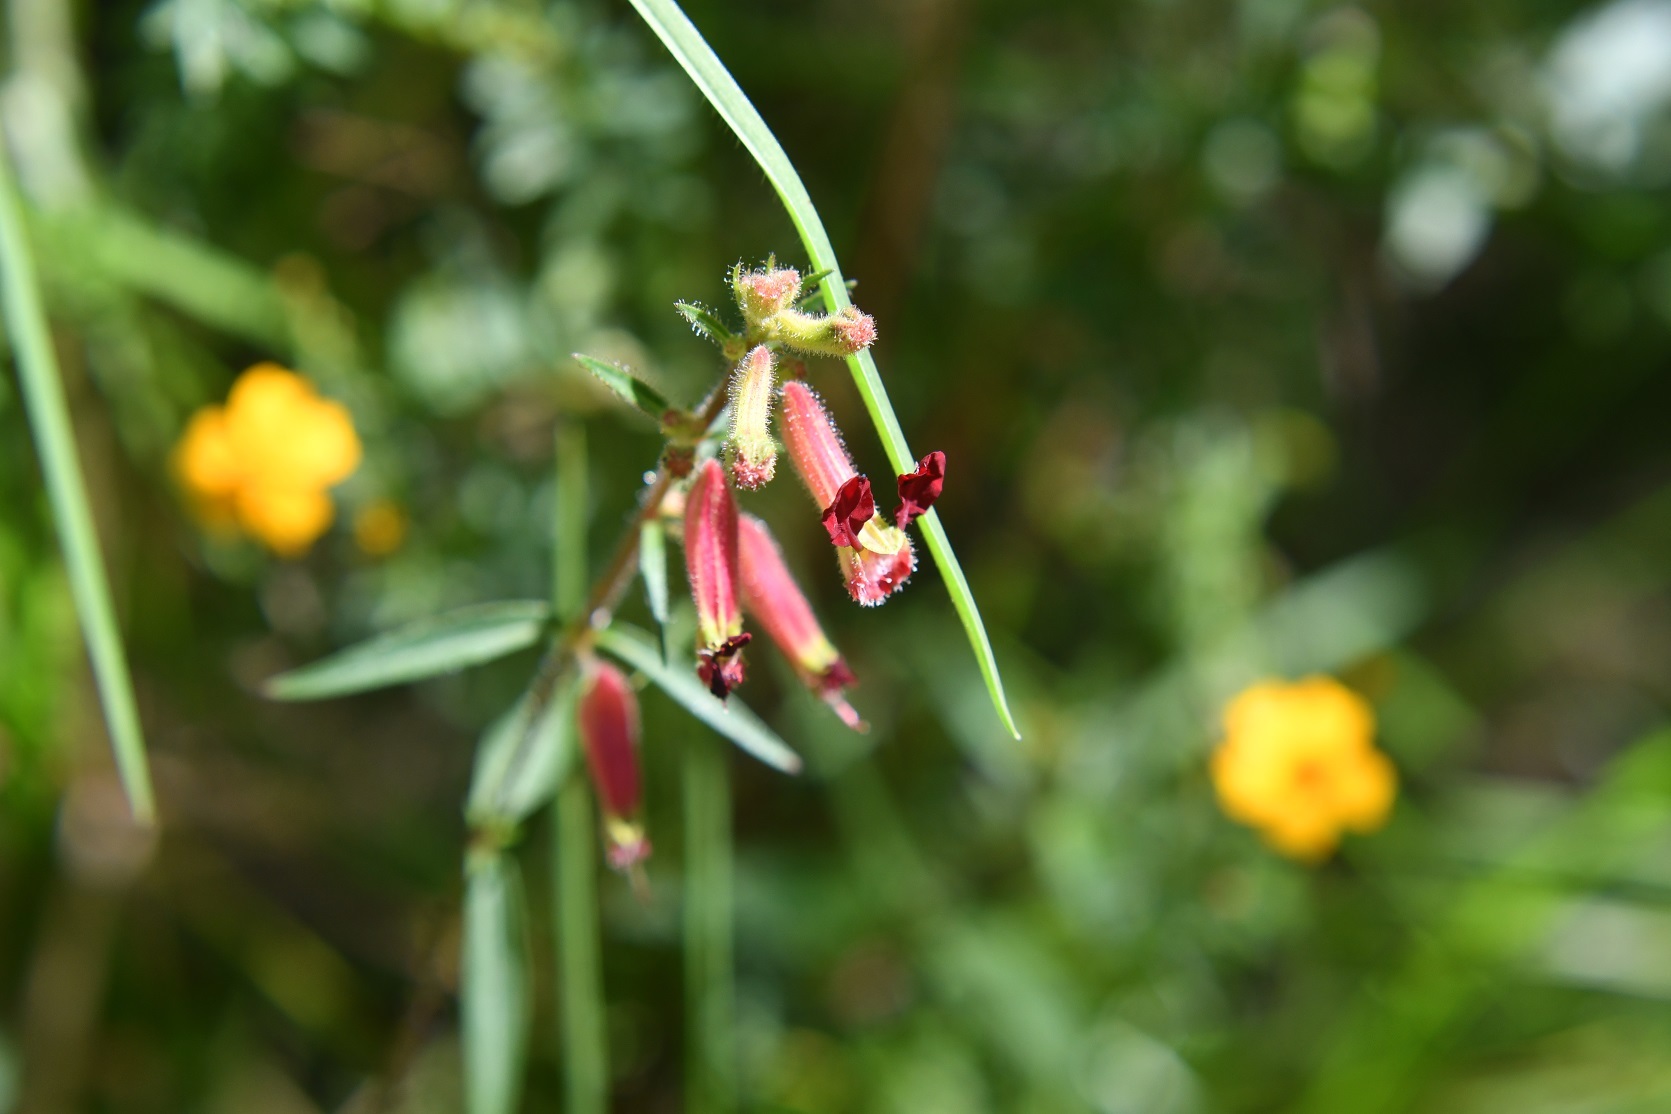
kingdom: Plantae
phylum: Tracheophyta
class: Magnoliopsida
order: Myrtales
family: Lythraceae
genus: Cuphea
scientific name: Cuphea hookeriana
